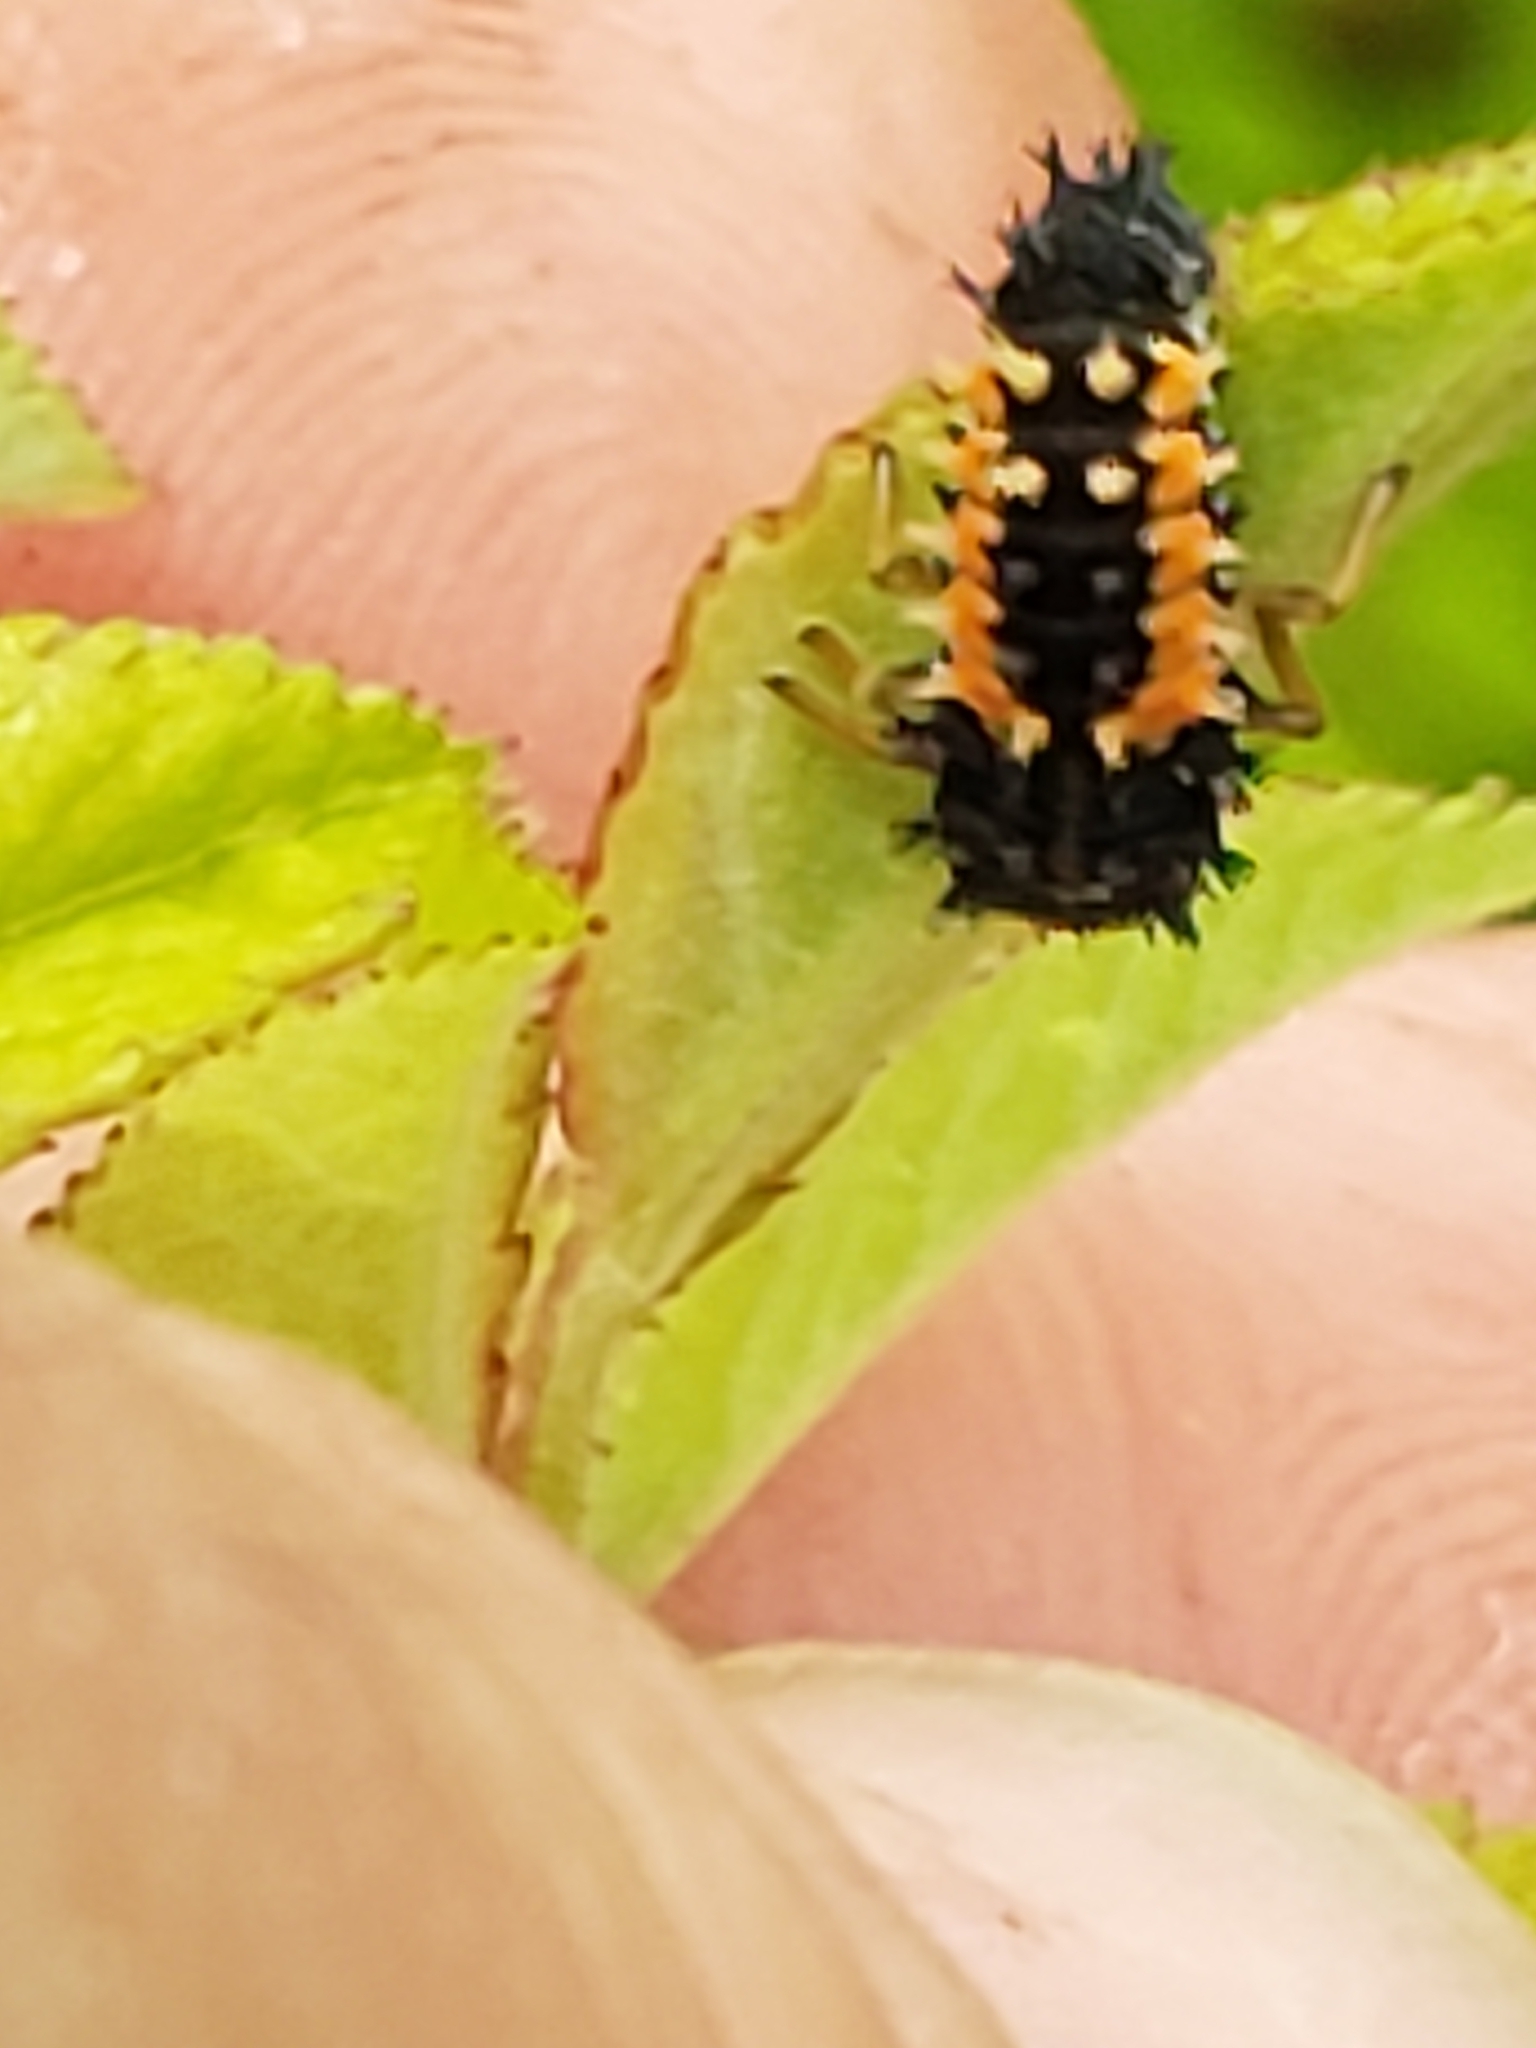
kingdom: Animalia
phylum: Arthropoda
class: Insecta
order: Coleoptera
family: Coccinellidae
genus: Harmonia
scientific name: Harmonia axyridis
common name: Harlequin ladybird
